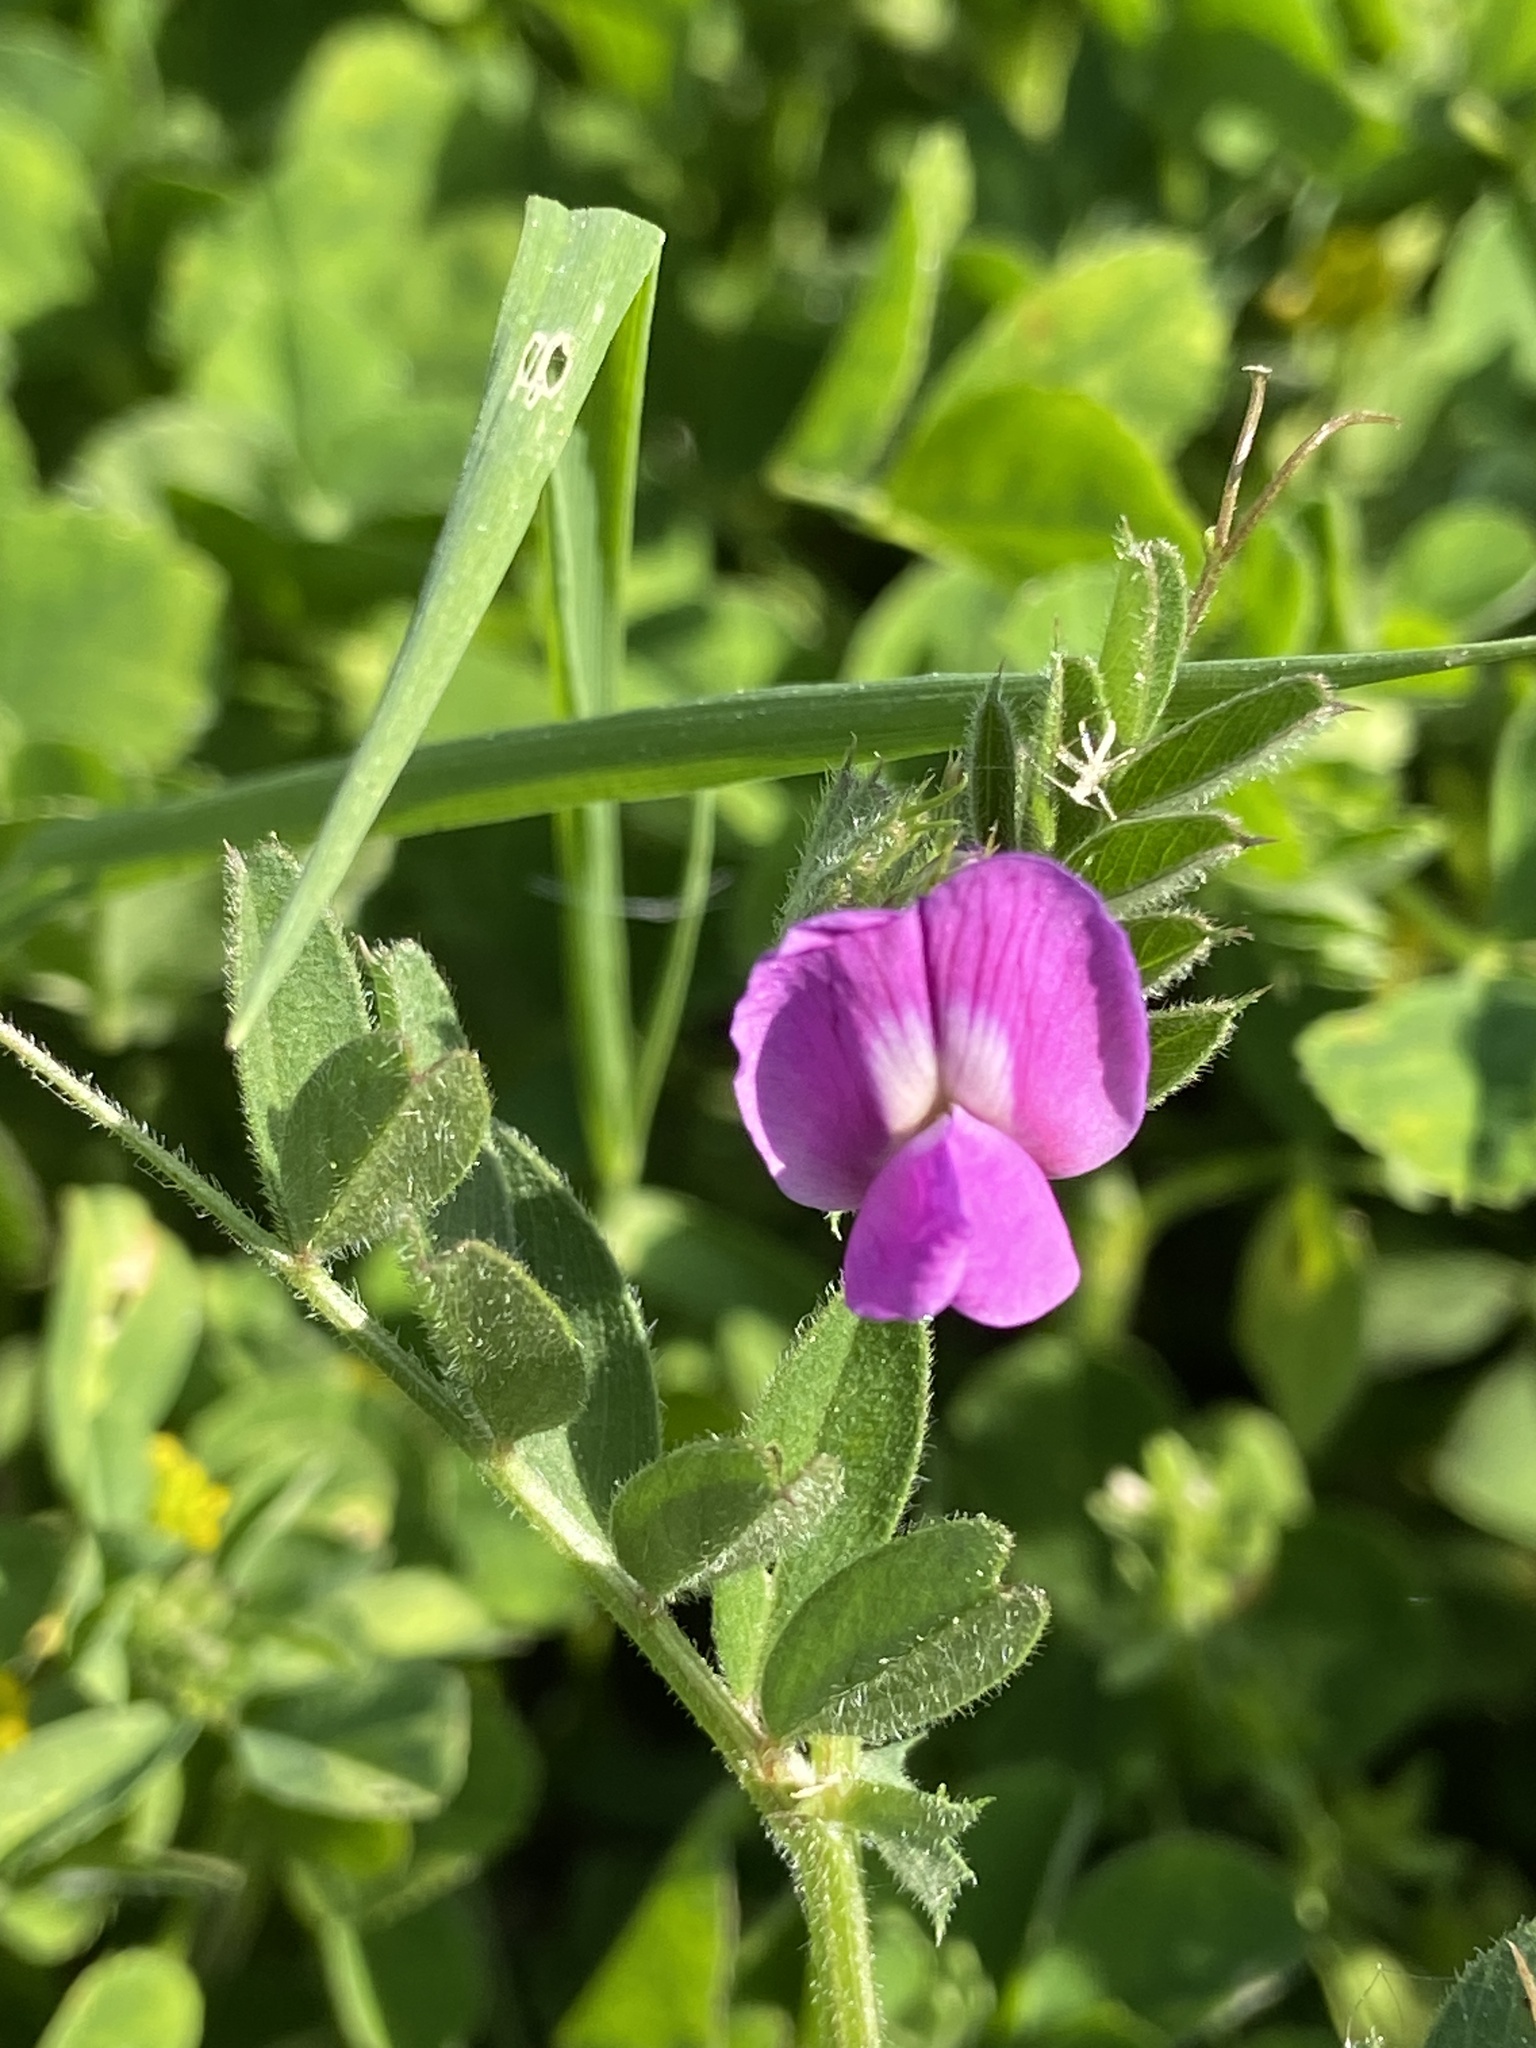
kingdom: Plantae
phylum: Tracheophyta
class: Magnoliopsida
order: Fabales
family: Fabaceae
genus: Vicia
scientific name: Vicia sativa
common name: Garden vetch
